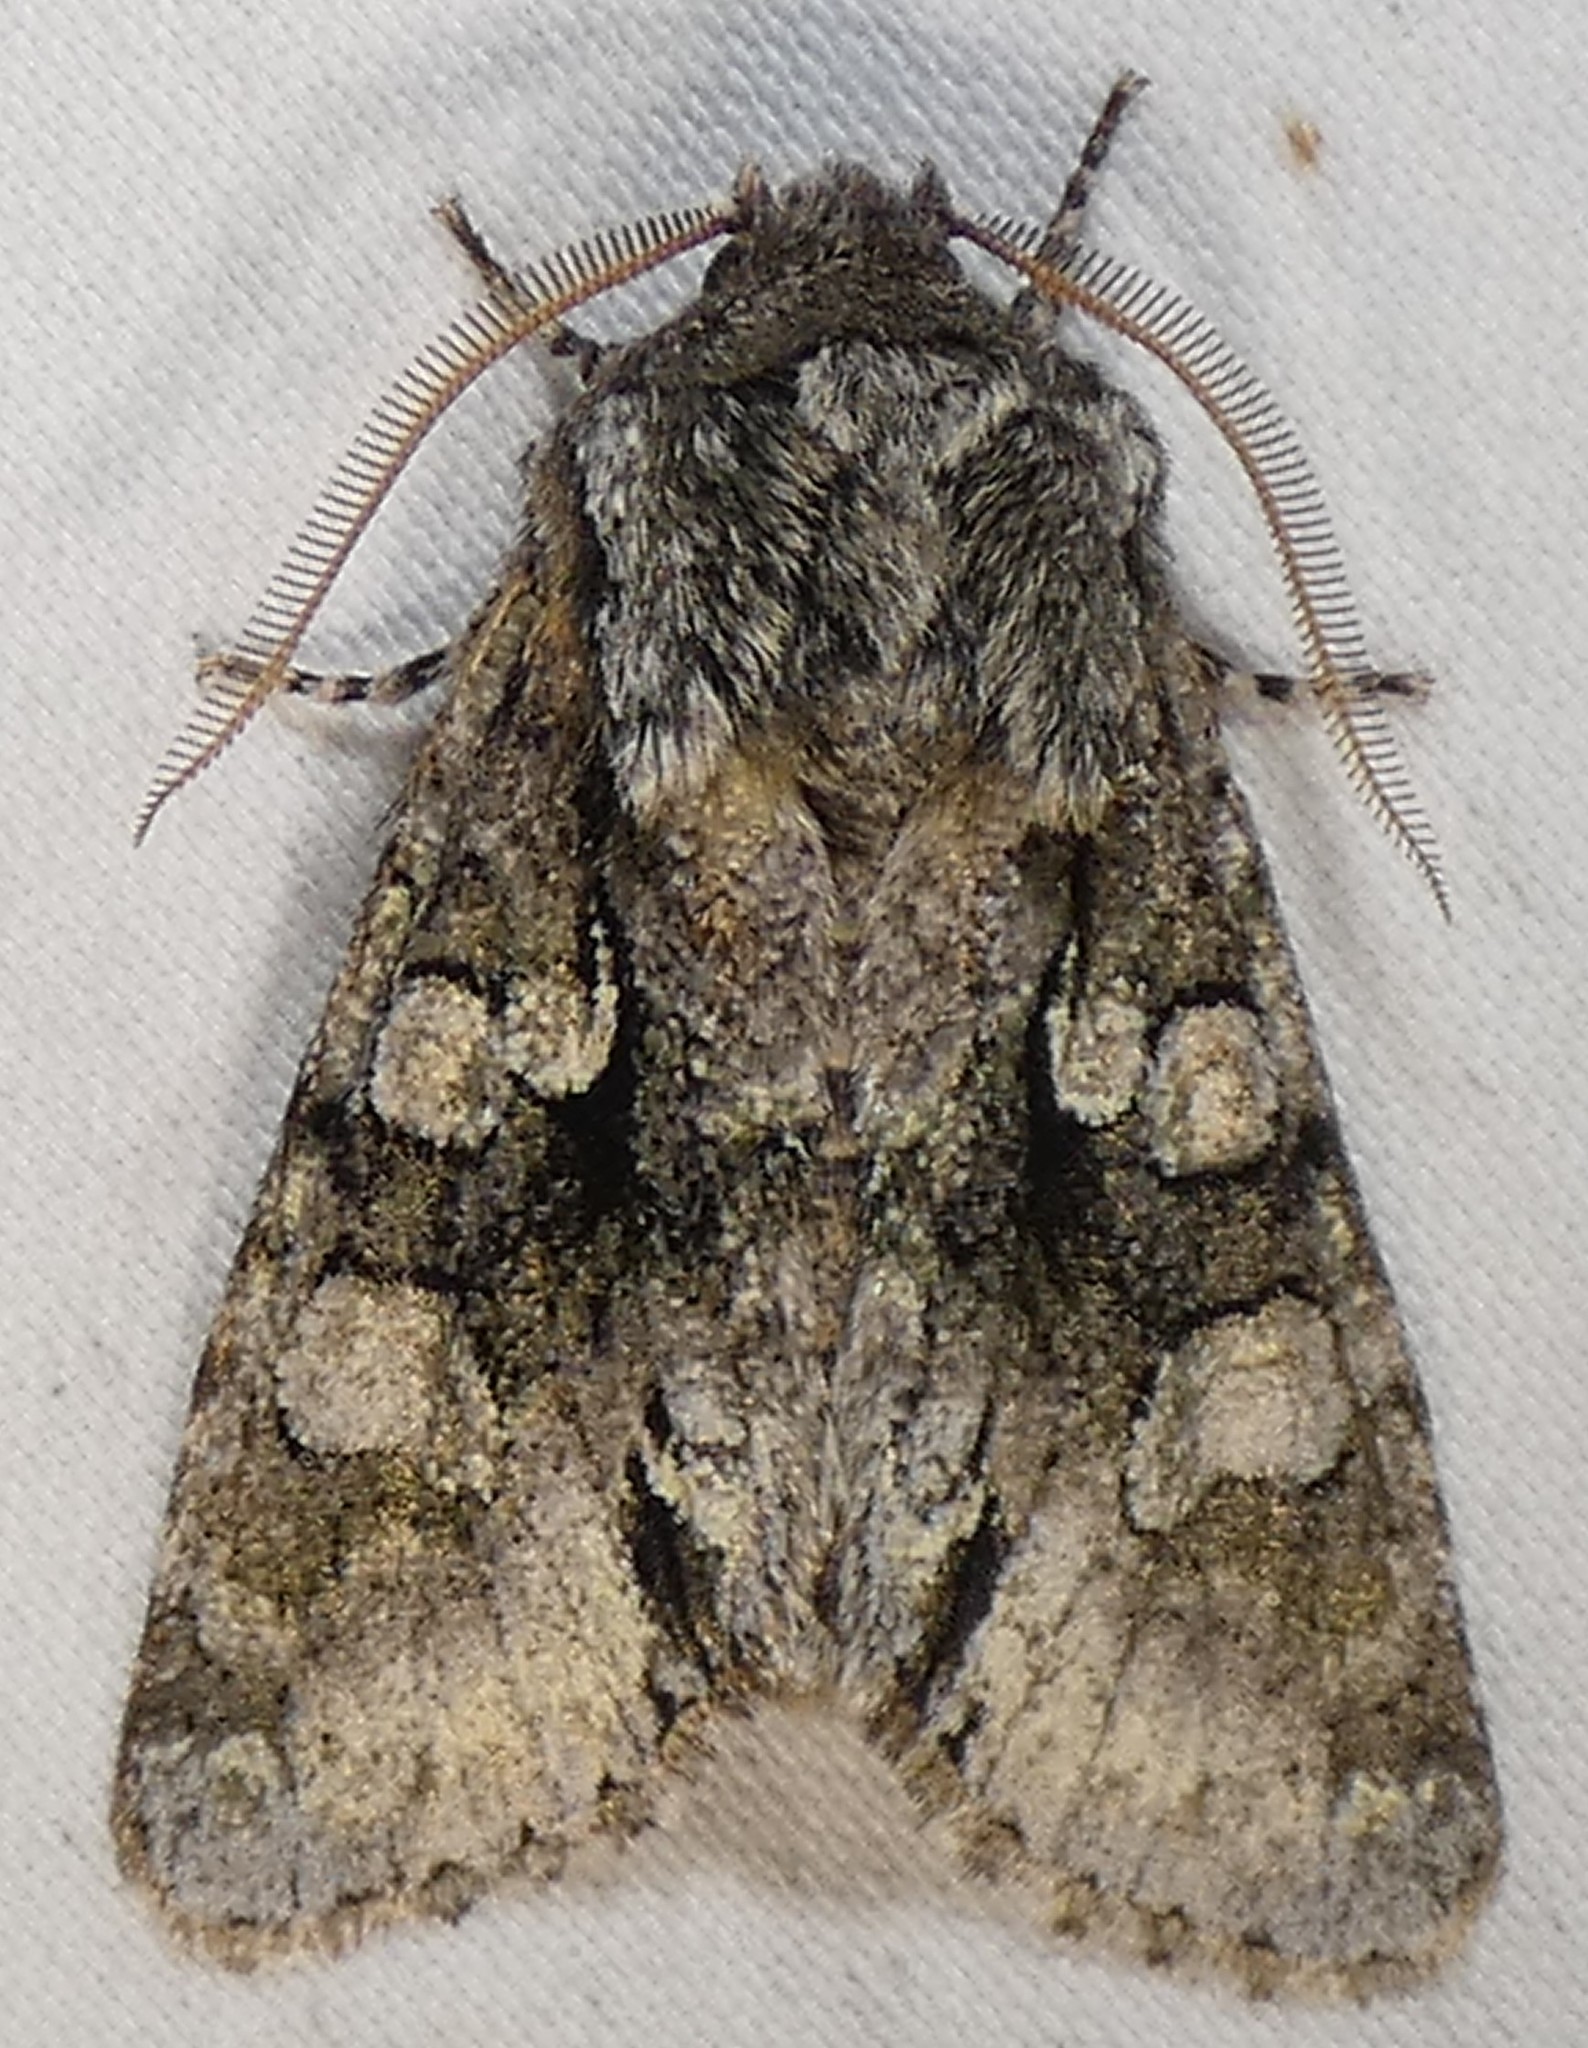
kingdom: Animalia
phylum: Arthropoda
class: Insecta
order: Lepidoptera
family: Noctuidae
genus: Psaphida
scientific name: Psaphida resumens
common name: Figure-eight sallow
